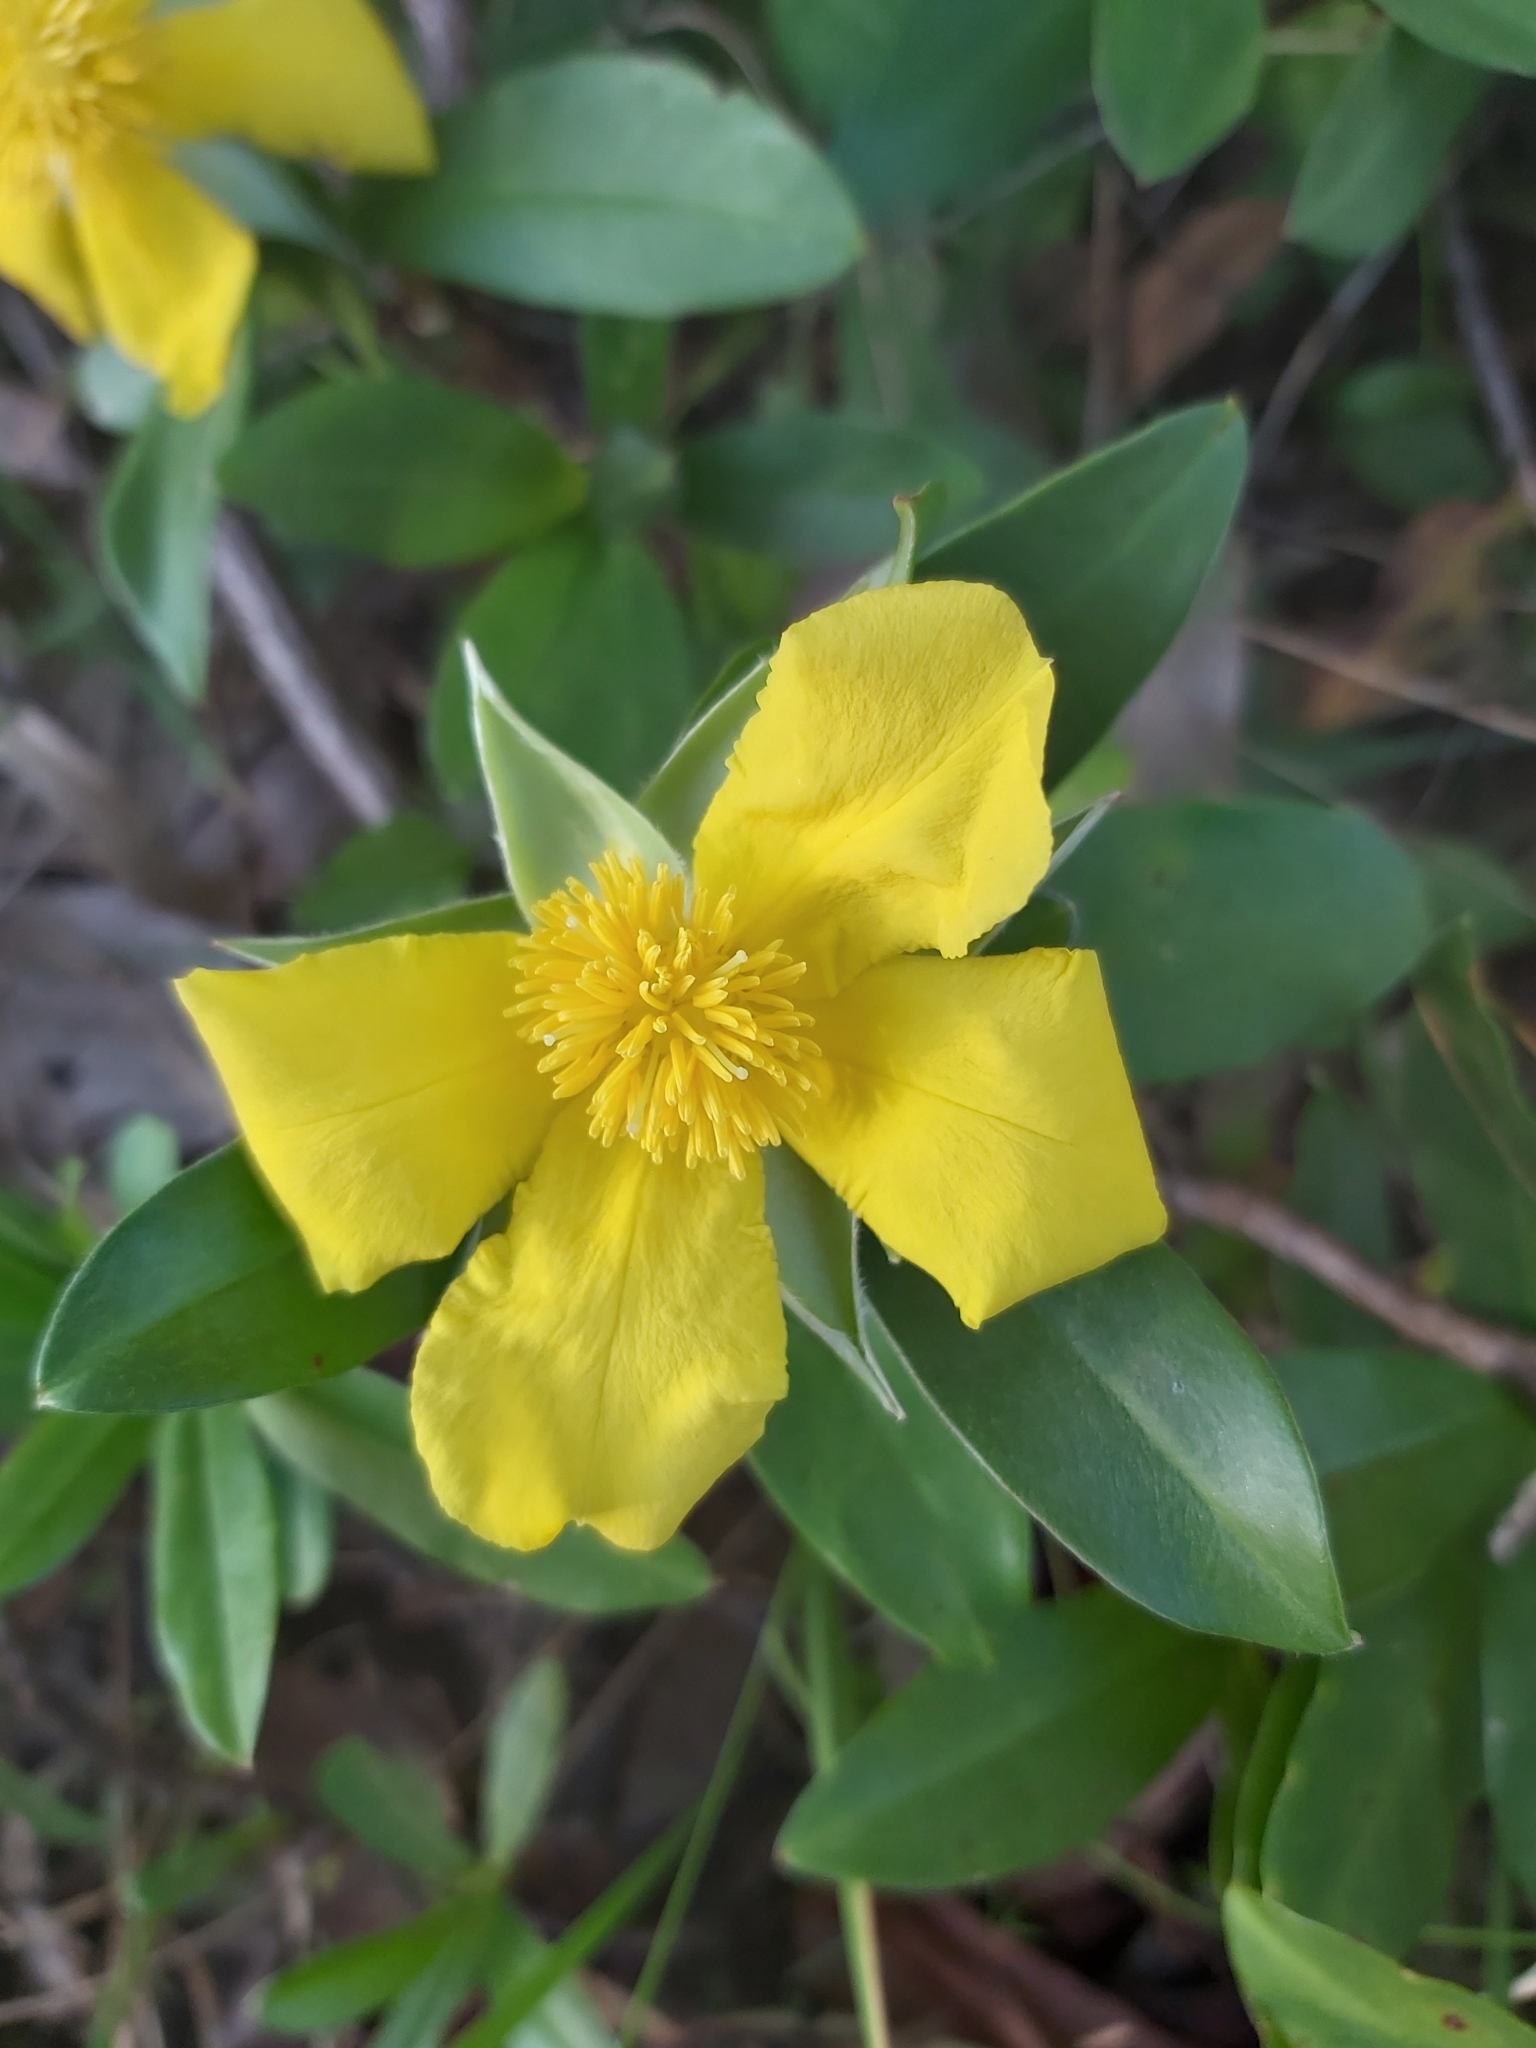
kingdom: Plantae
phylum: Tracheophyta
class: Magnoliopsida
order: Dilleniales
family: Dilleniaceae
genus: Hibbertia
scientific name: Hibbertia scandens
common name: Climbing guinea-flower
